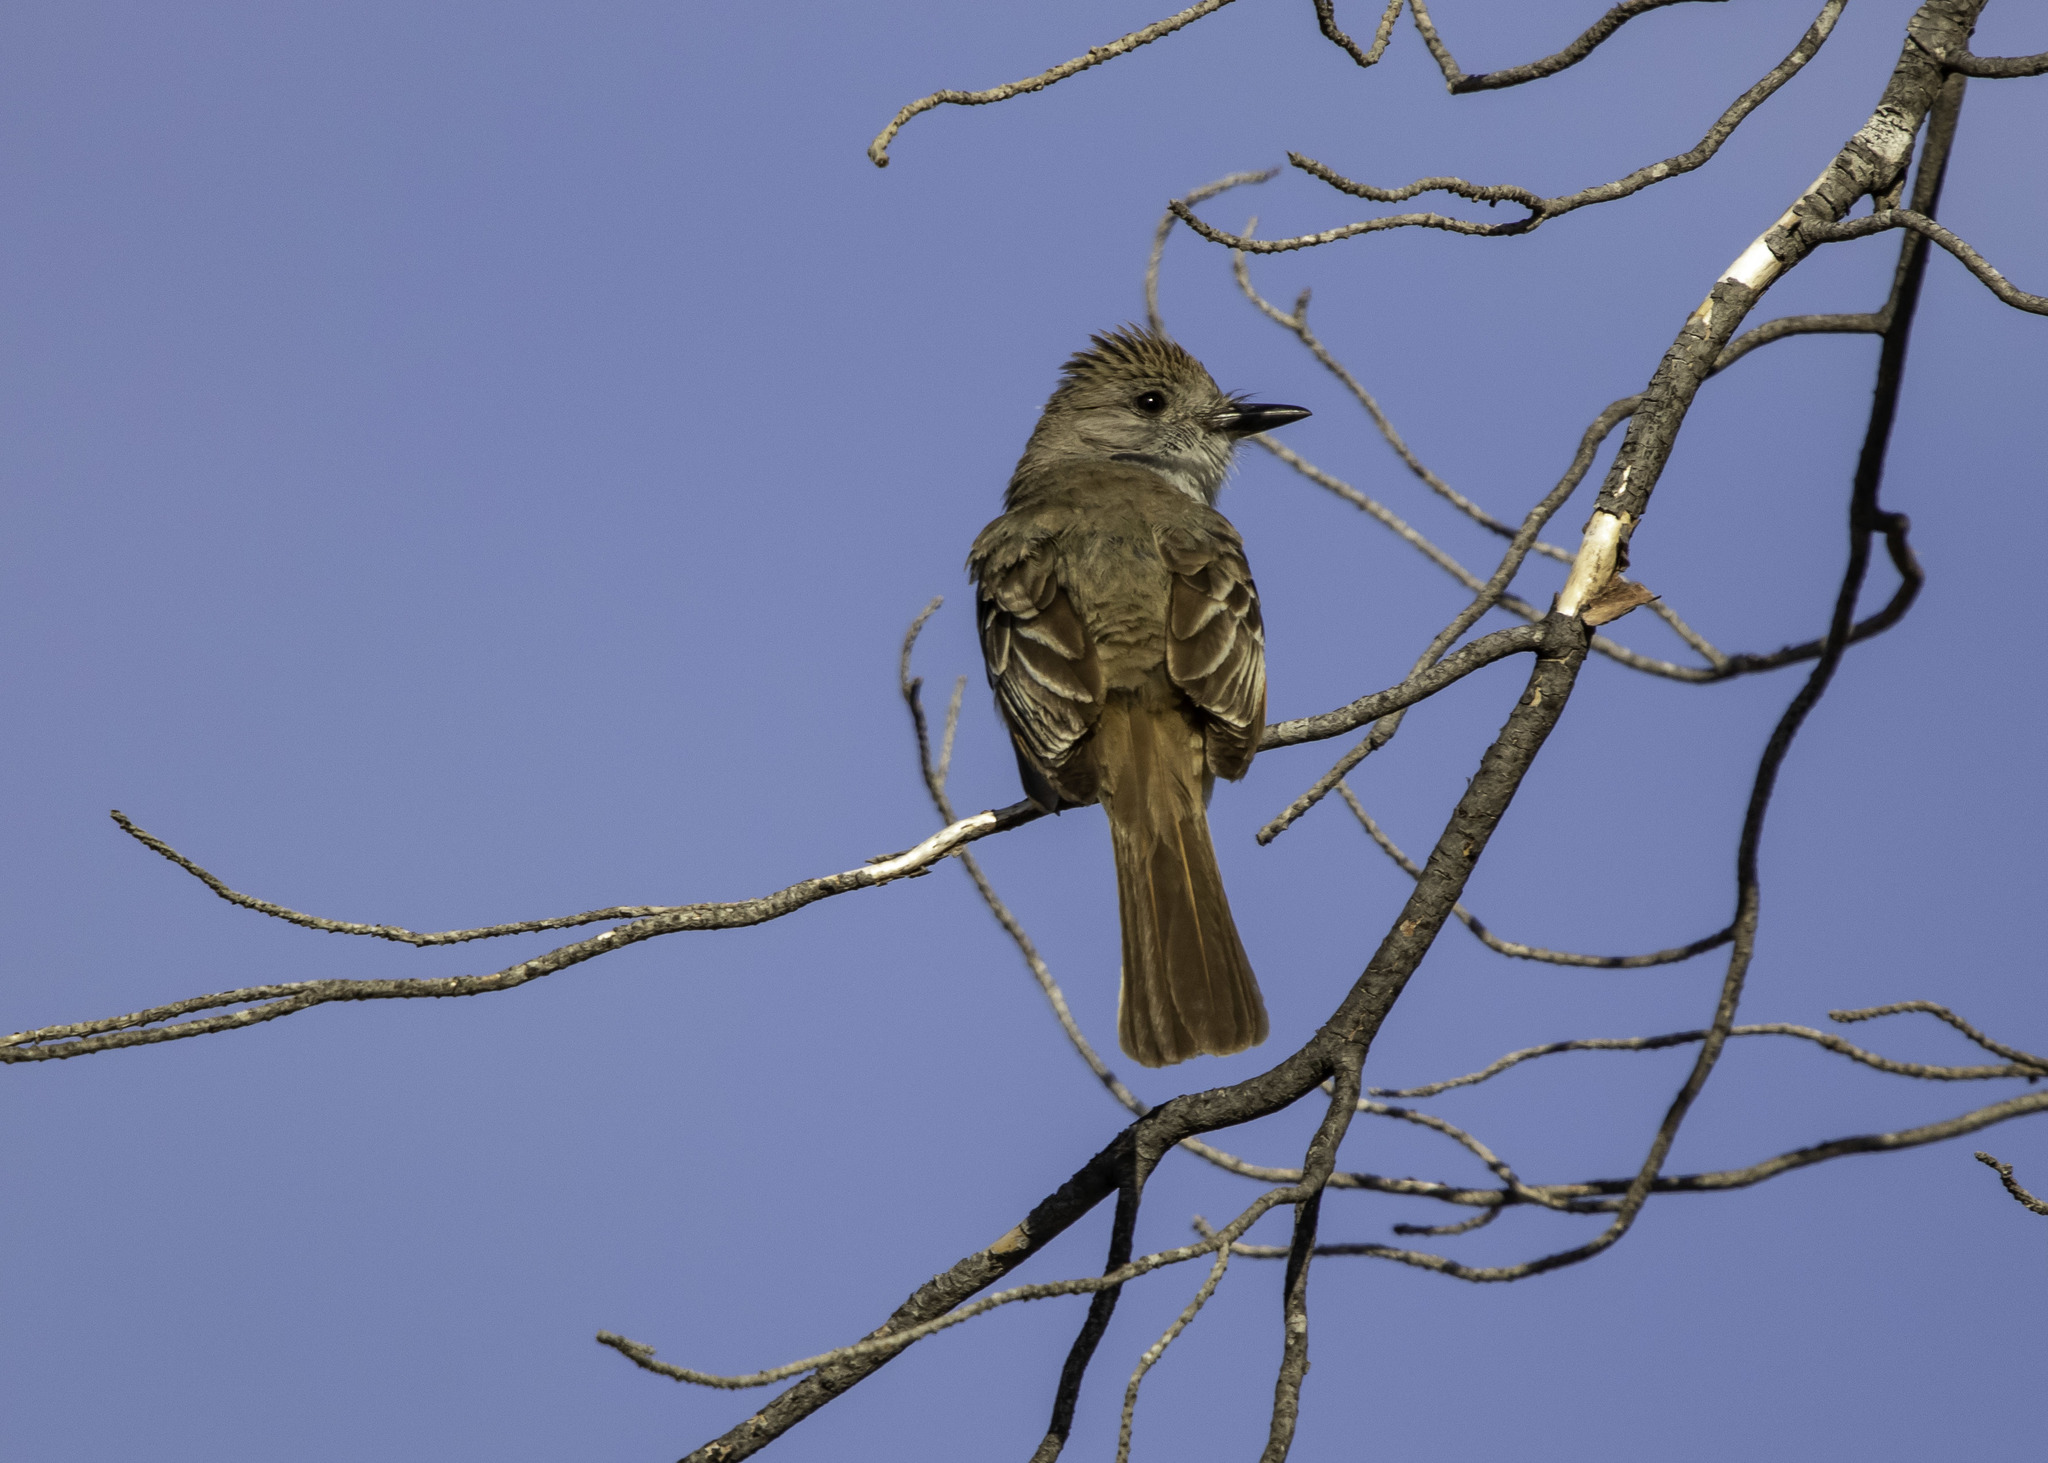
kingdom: Animalia
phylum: Chordata
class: Aves
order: Passeriformes
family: Tyrannidae
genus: Myiarchus
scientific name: Myiarchus cinerascens
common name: Ash-throated flycatcher
